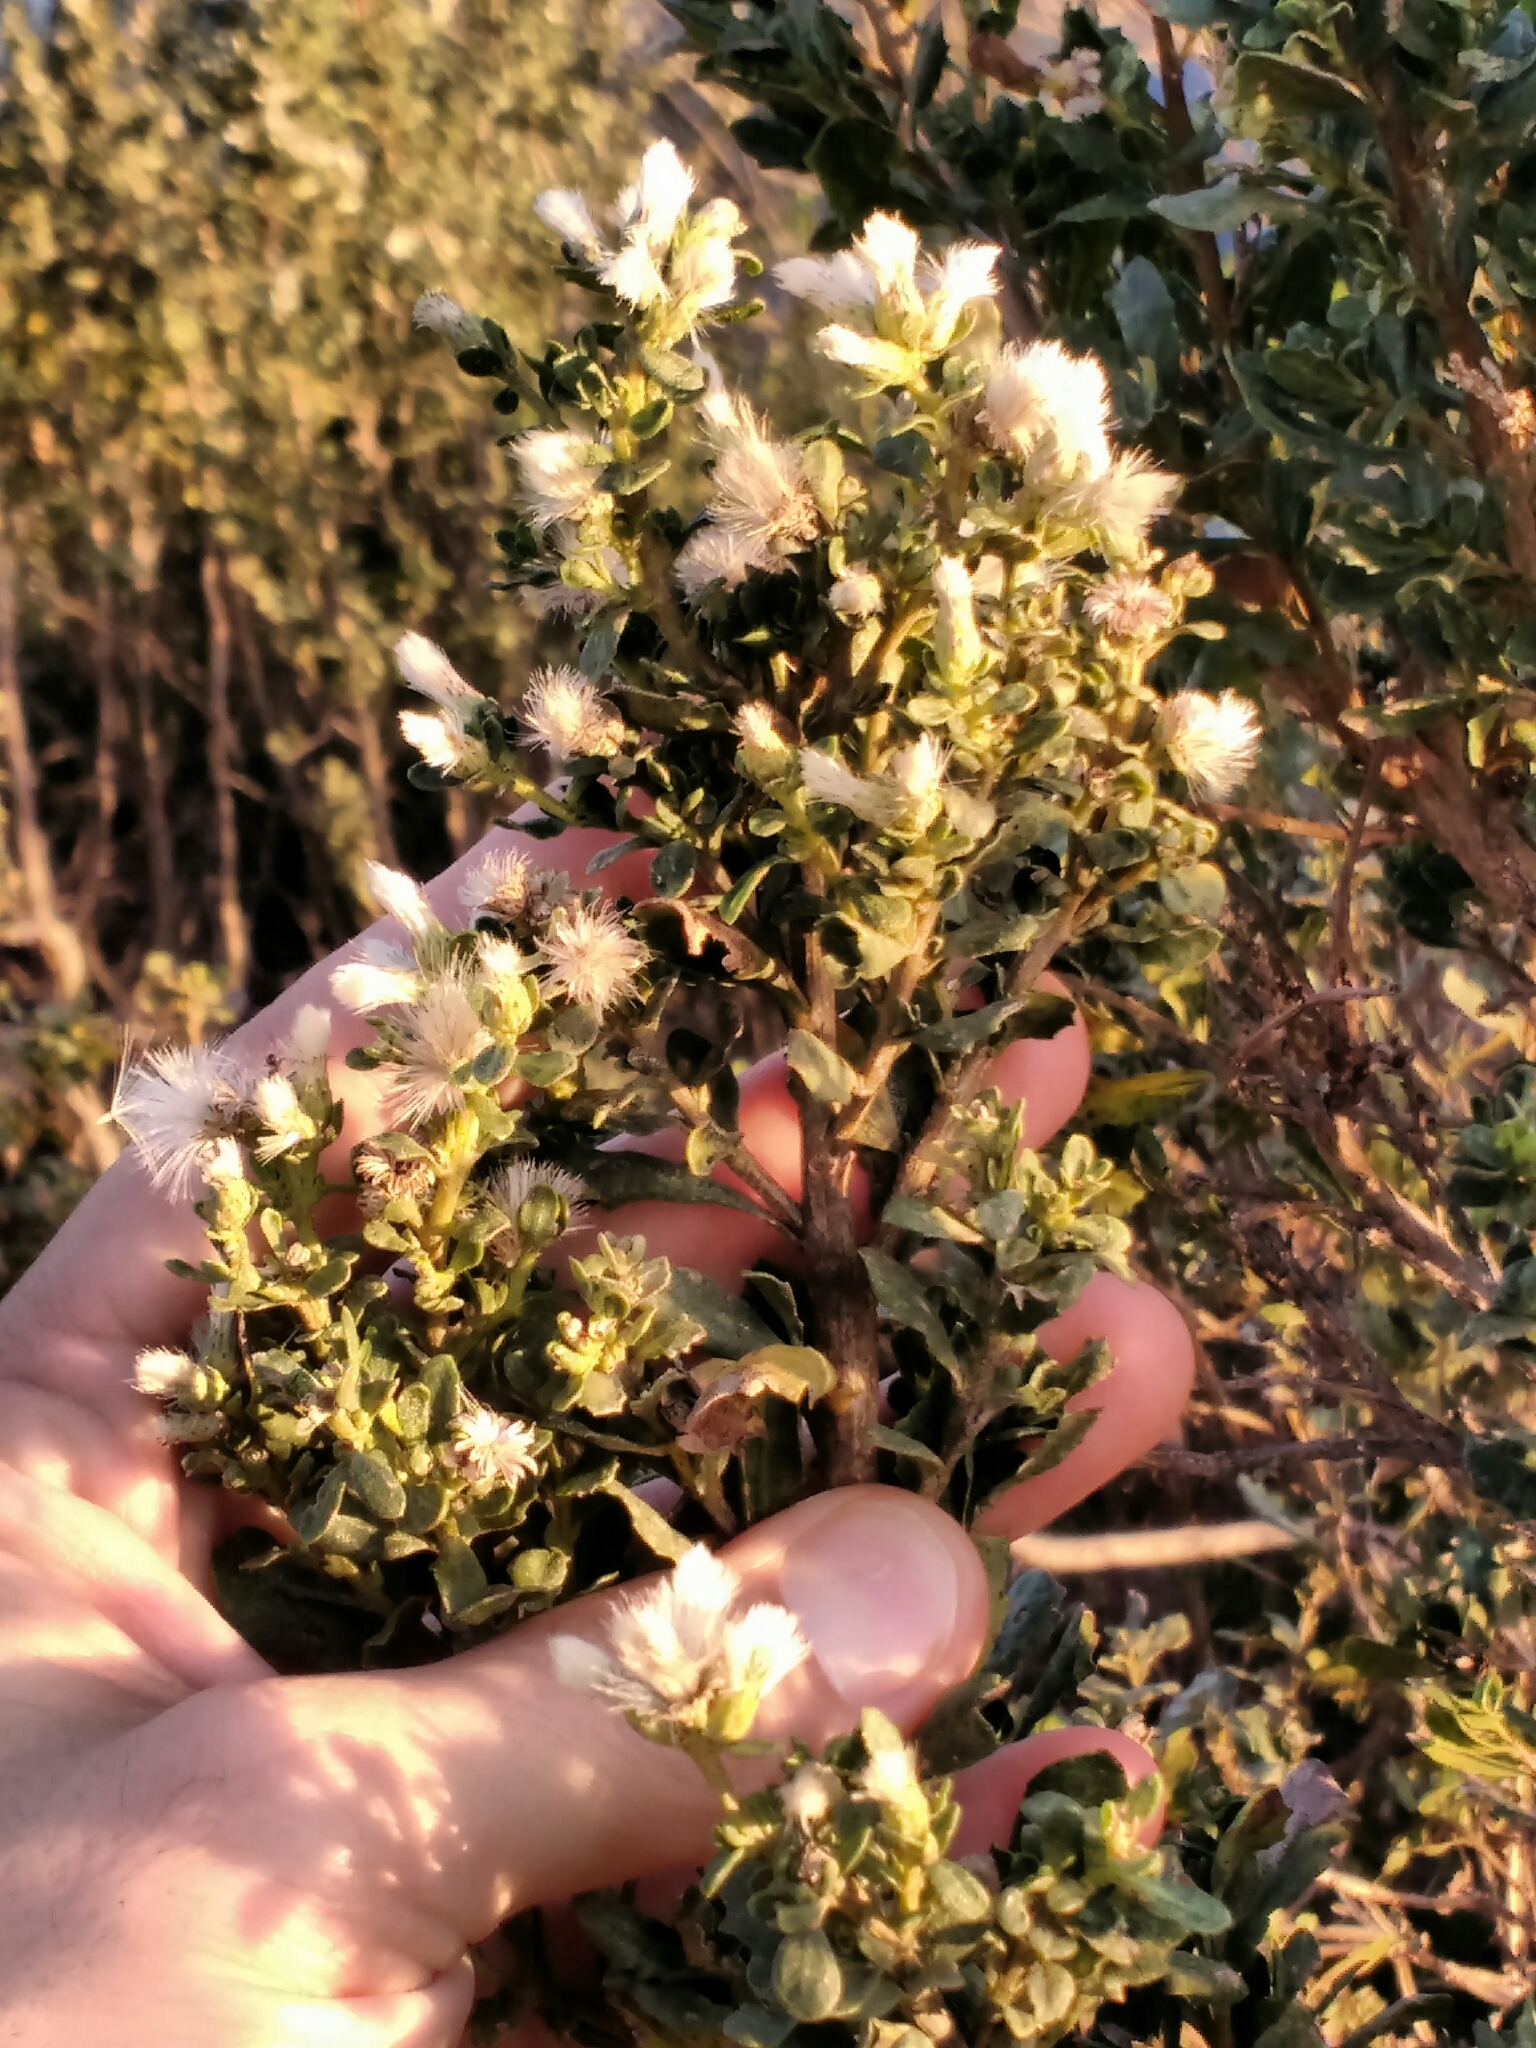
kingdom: Plantae
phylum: Tracheophyta
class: Magnoliopsida
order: Asterales
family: Asteraceae
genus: Baccharis
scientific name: Baccharis pilularis
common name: Coyotebrush
